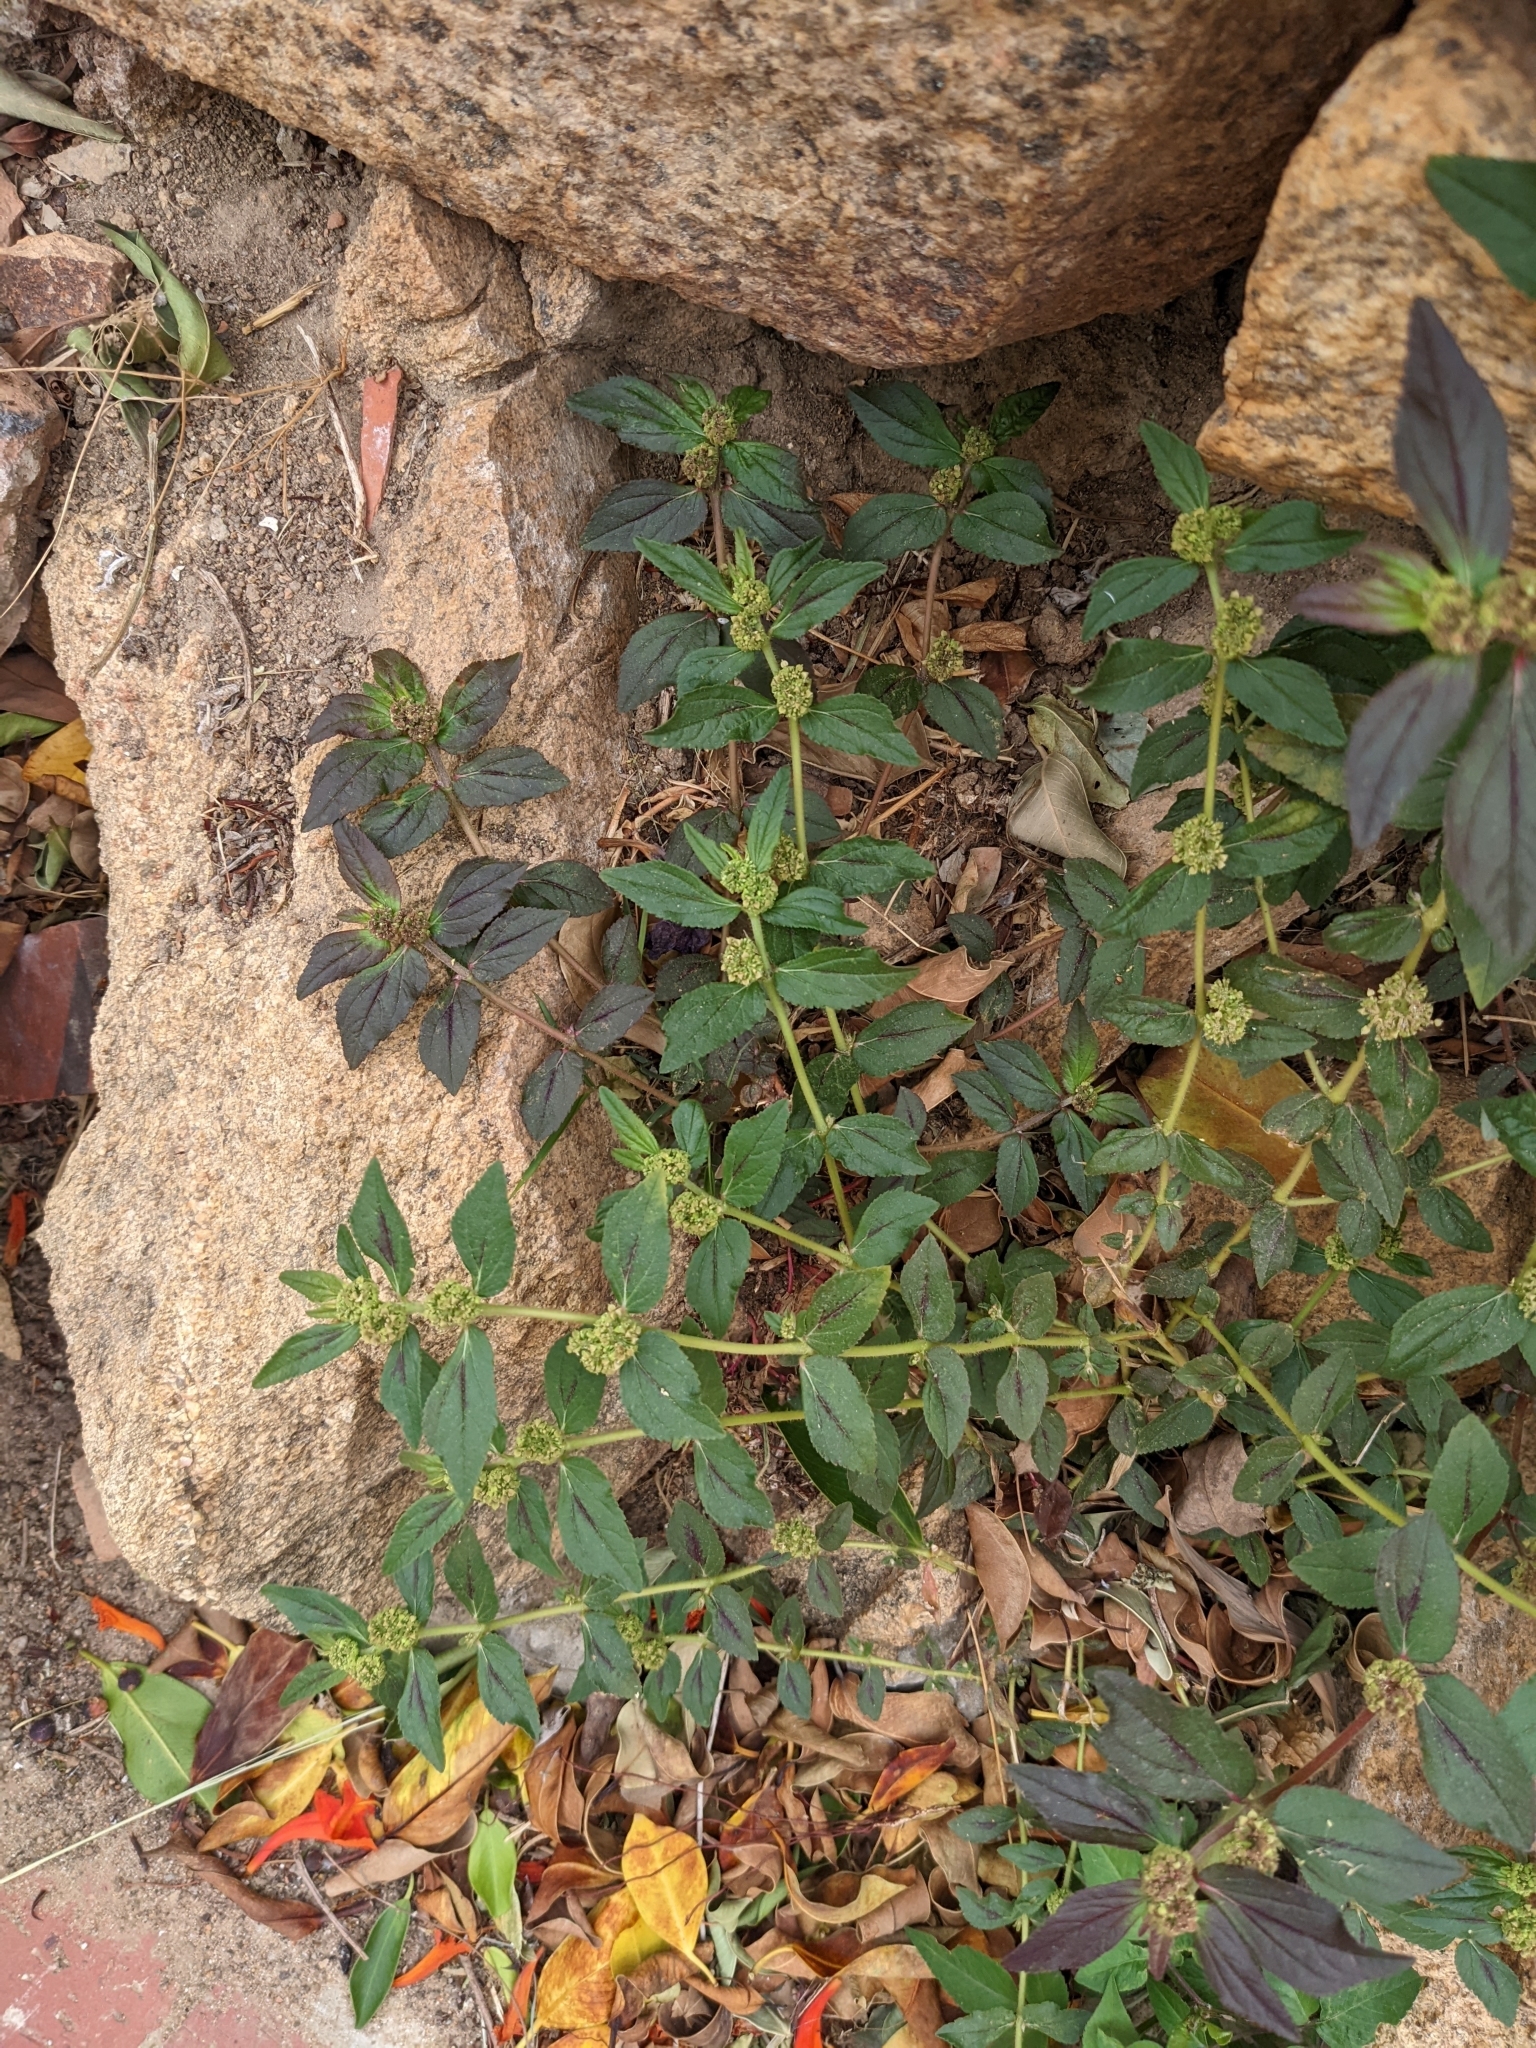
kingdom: Plantae
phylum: Tracheophyta
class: Magnoliopsida
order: Malpighiales
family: Euphorbiaceae
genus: Euphorbia
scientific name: Euphorbia hirta
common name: Pillpod sandmat
